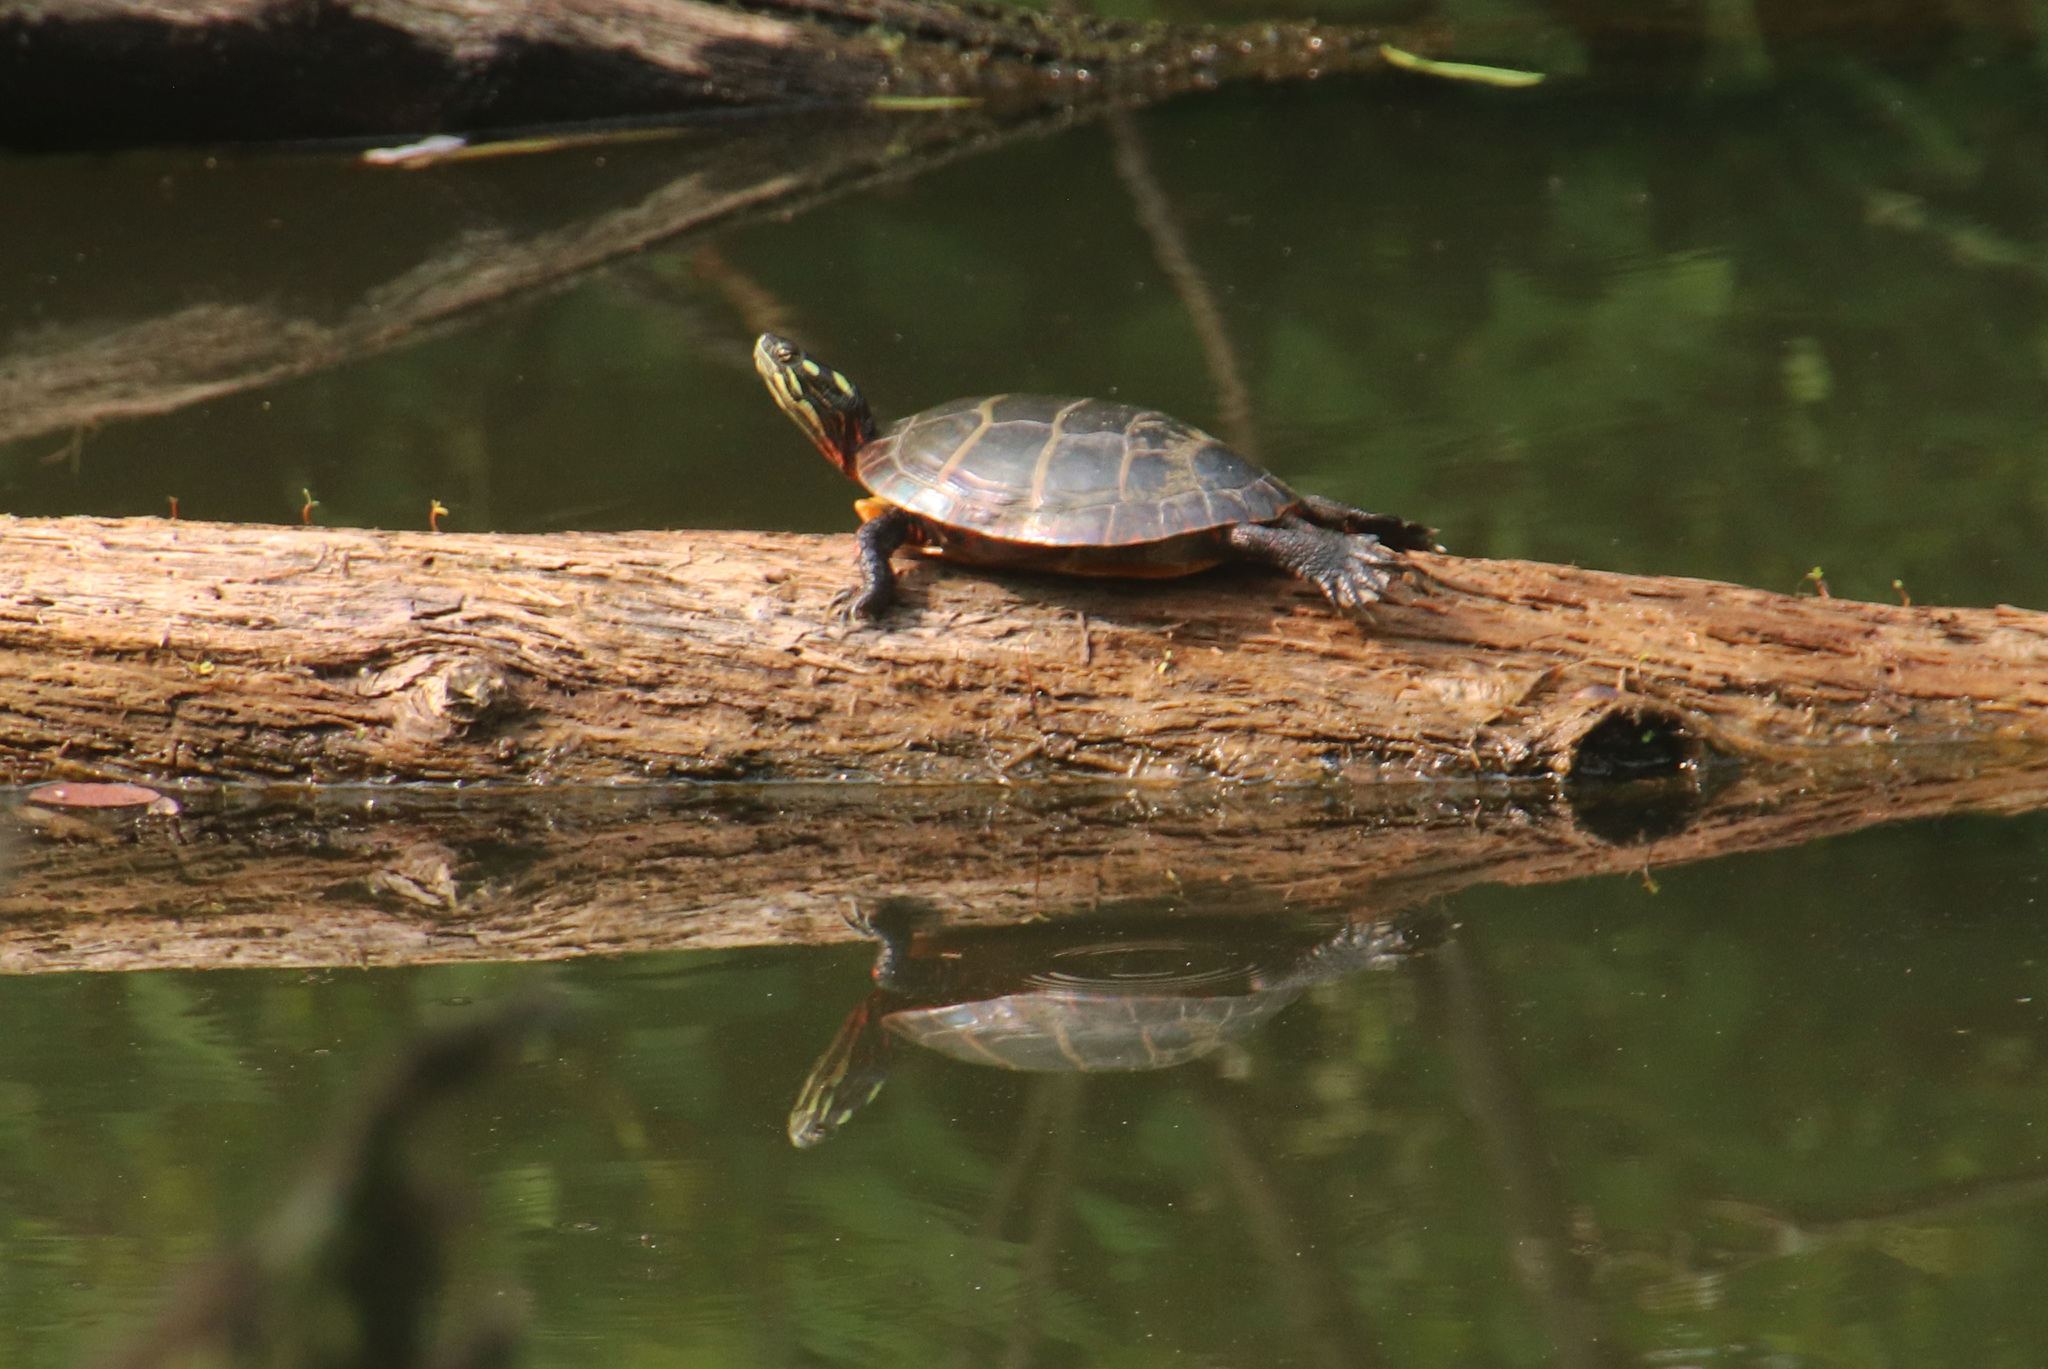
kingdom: Animalia
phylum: Chordata
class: Testudines
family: Emydidae
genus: Chrysemys
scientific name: Chrysemys picta
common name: Painted turtle
